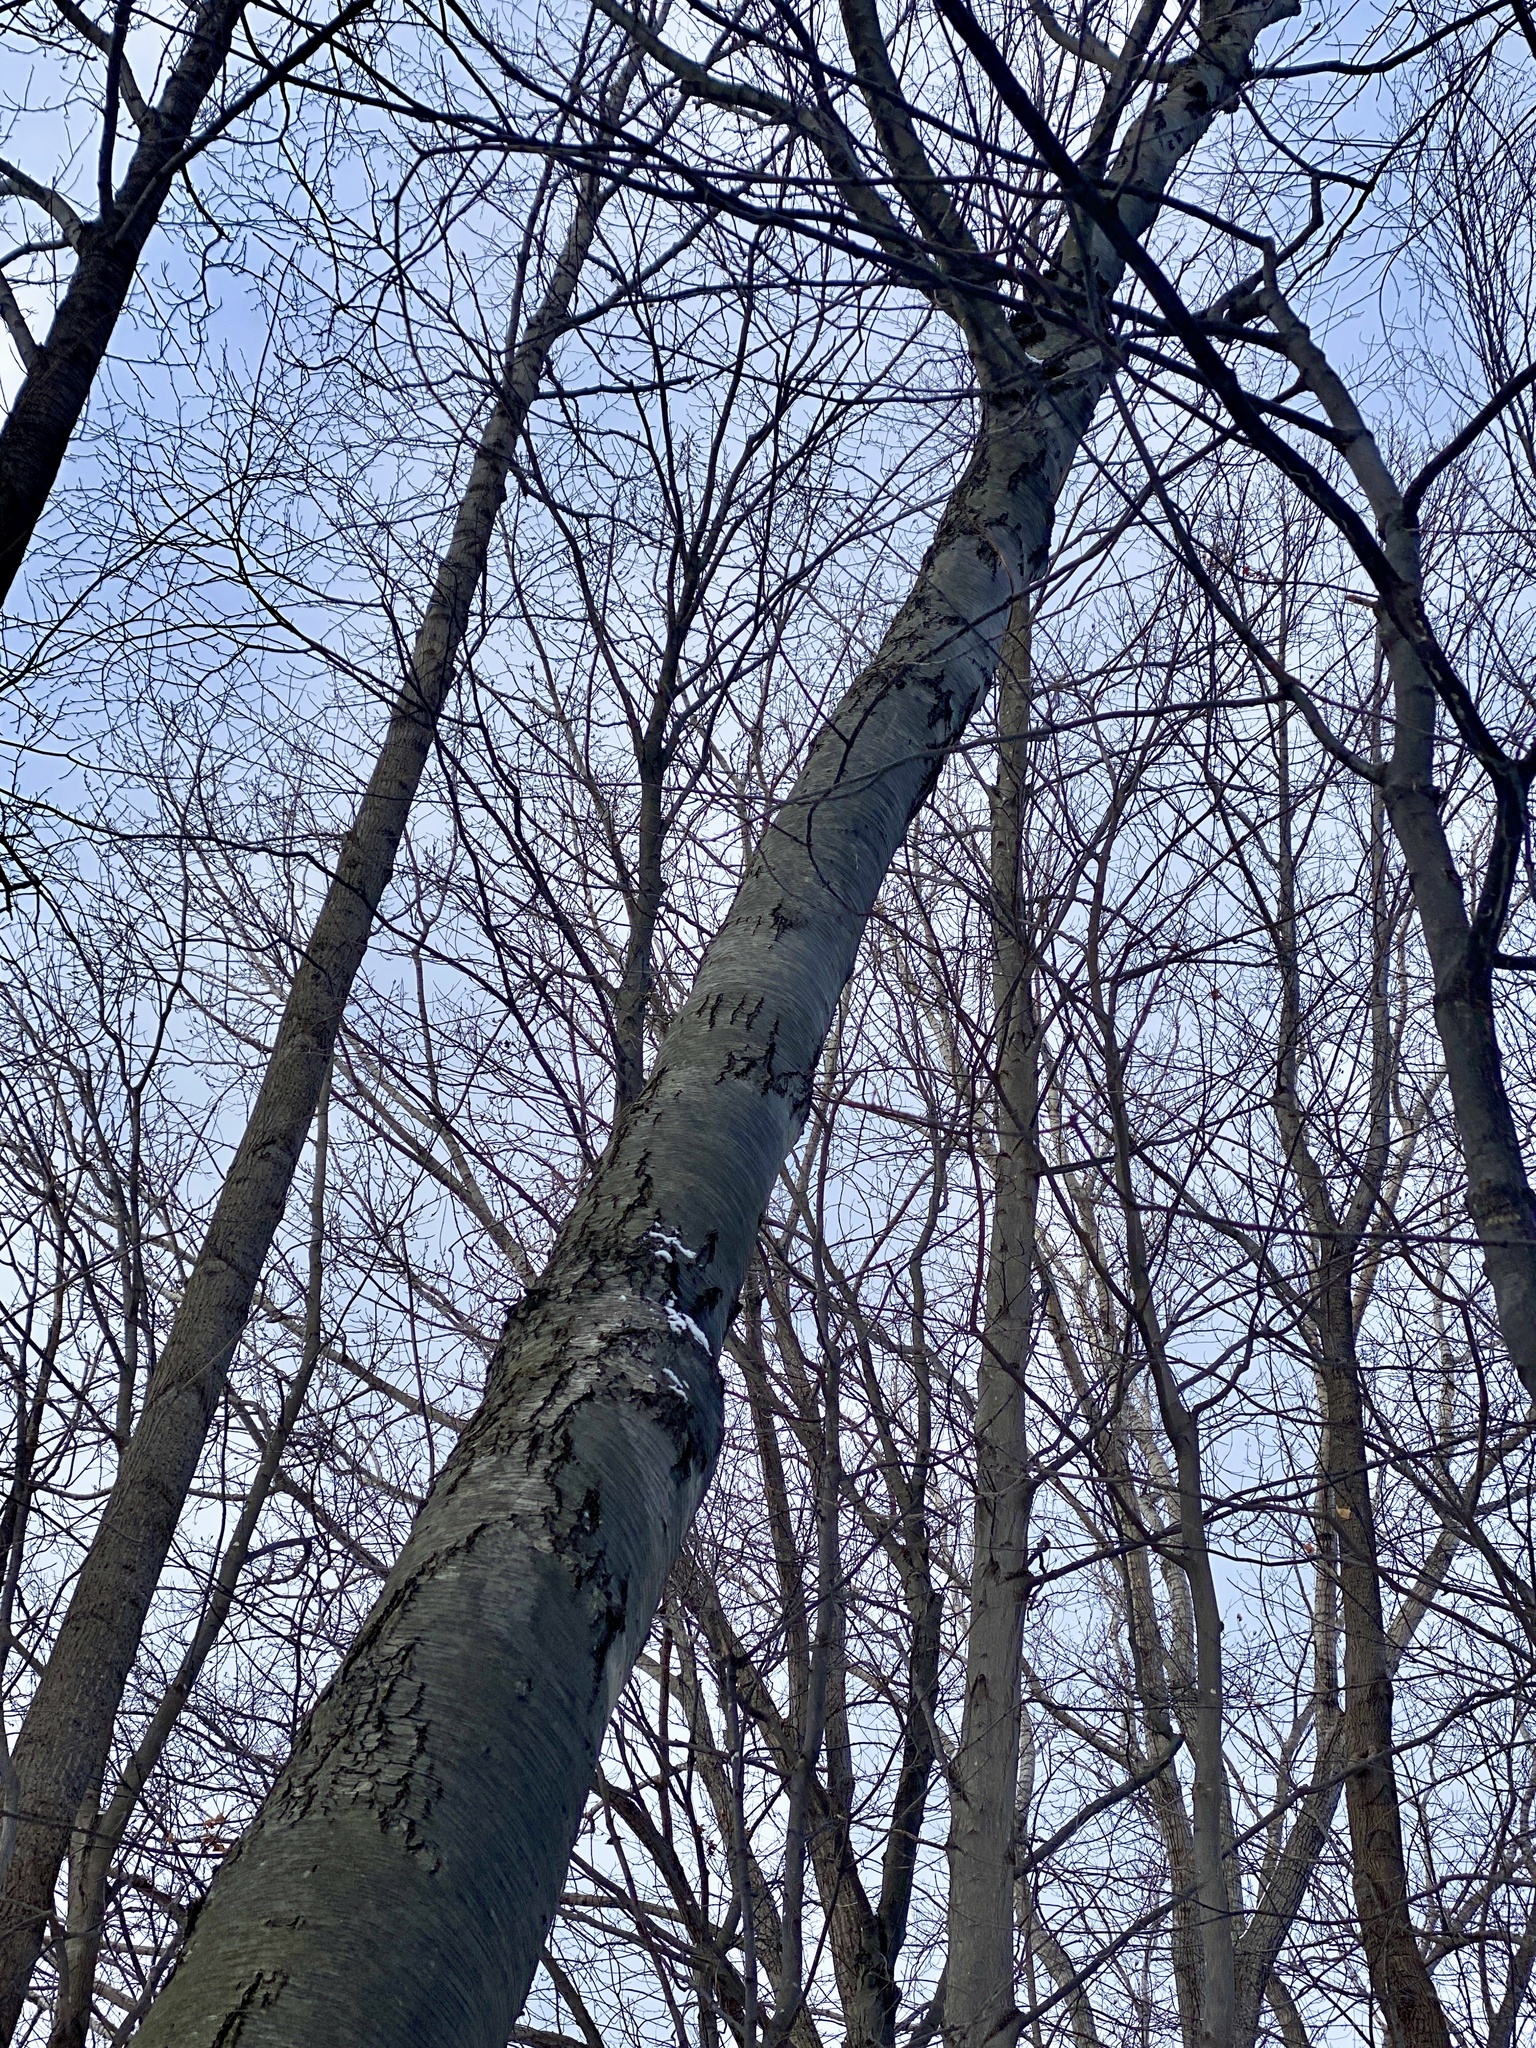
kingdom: Plantae
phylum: Tracheophyta
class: Magnoliopsida
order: Fagales
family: Betulaceae
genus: Betula
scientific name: Betula lenta
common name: Black birch
